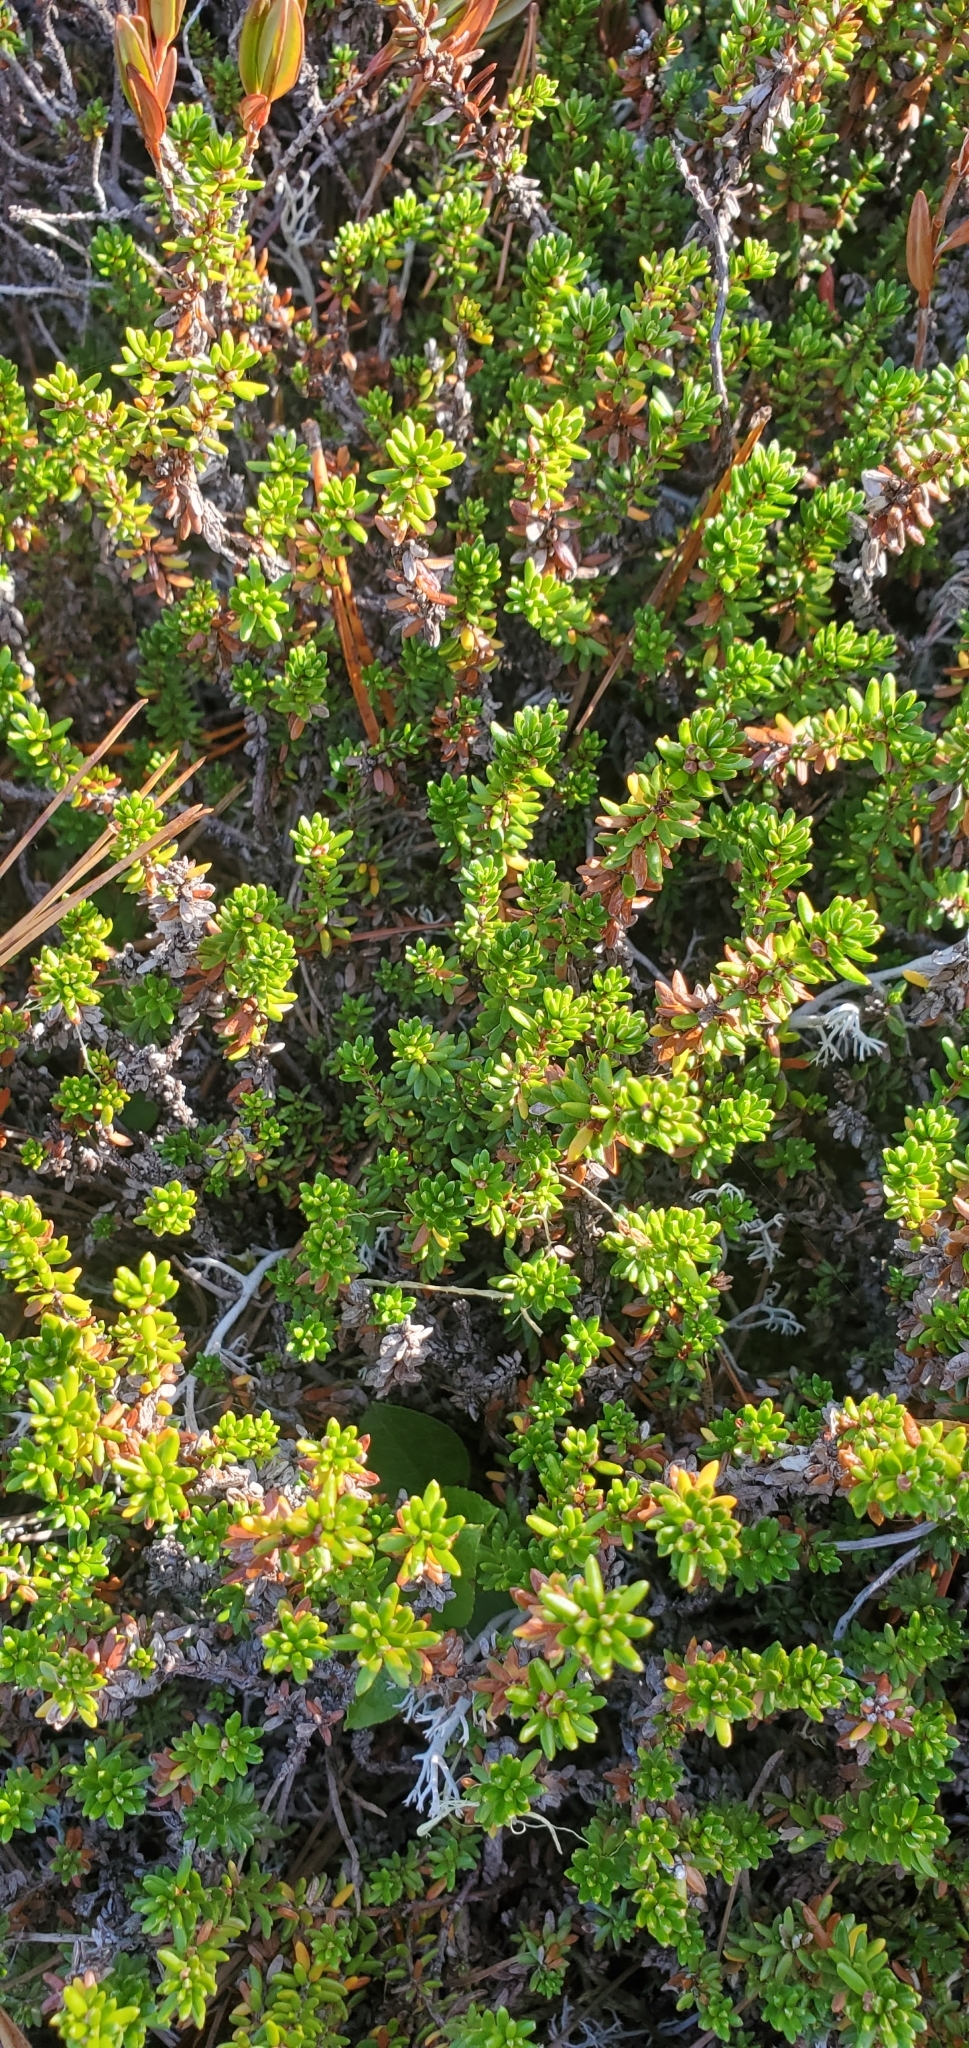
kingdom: Plantae
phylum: Tracheophyta
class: Magnoliopsida
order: Ericales
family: Ericaceae
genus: Empetrum
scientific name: Empetrum nigrum
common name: Black crowberry
